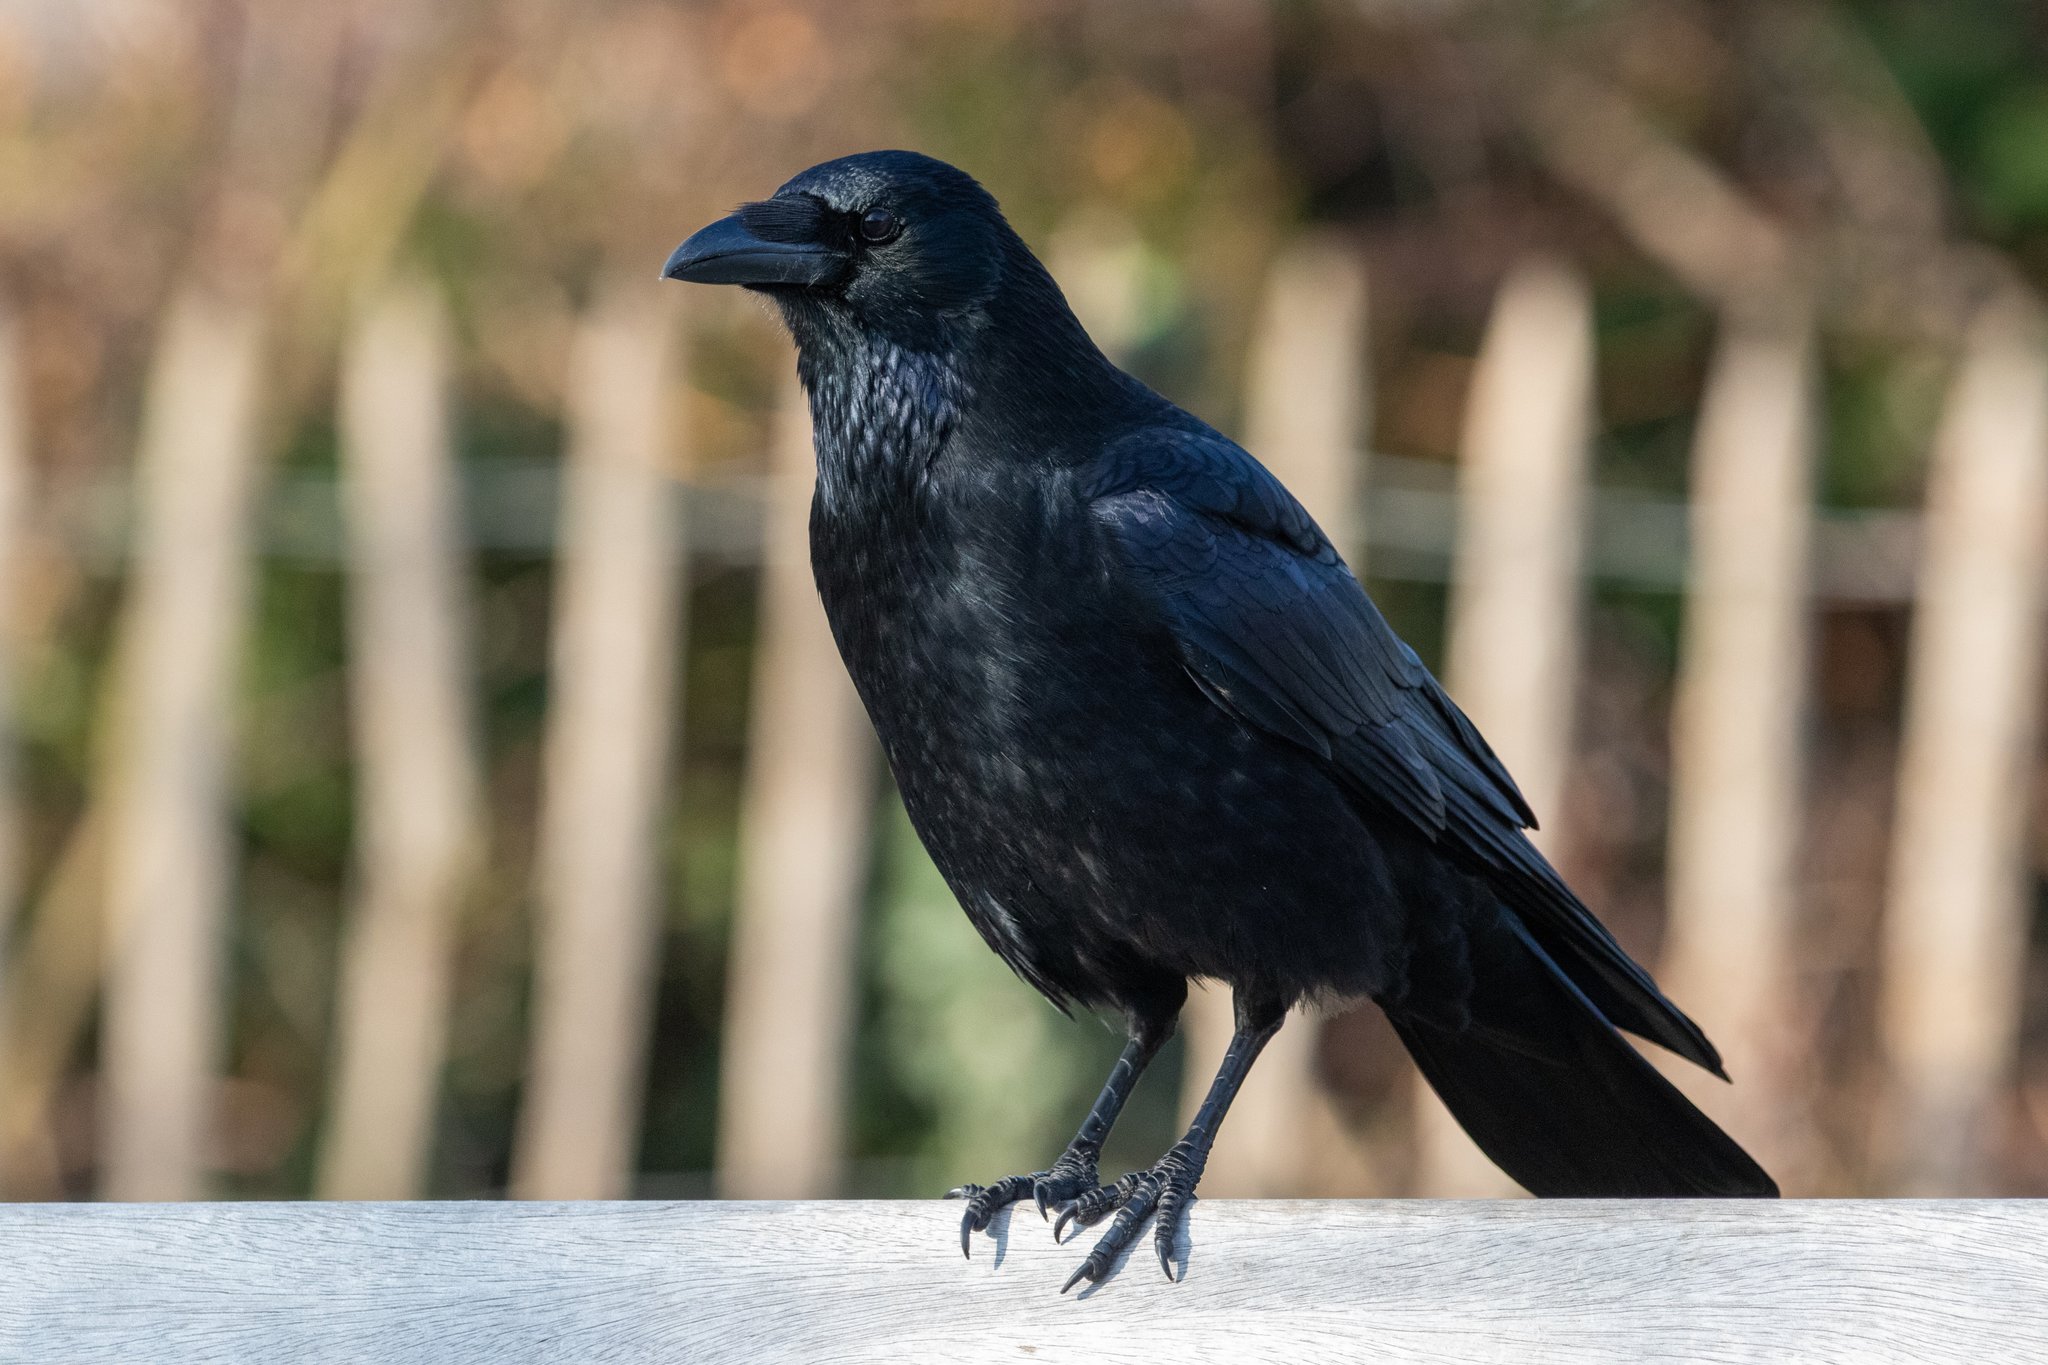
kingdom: Animalia
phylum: Chordata
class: Aves
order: Passeriformes
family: Corvidae
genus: Corvus
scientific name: Corvus corone
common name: Carrion crow
